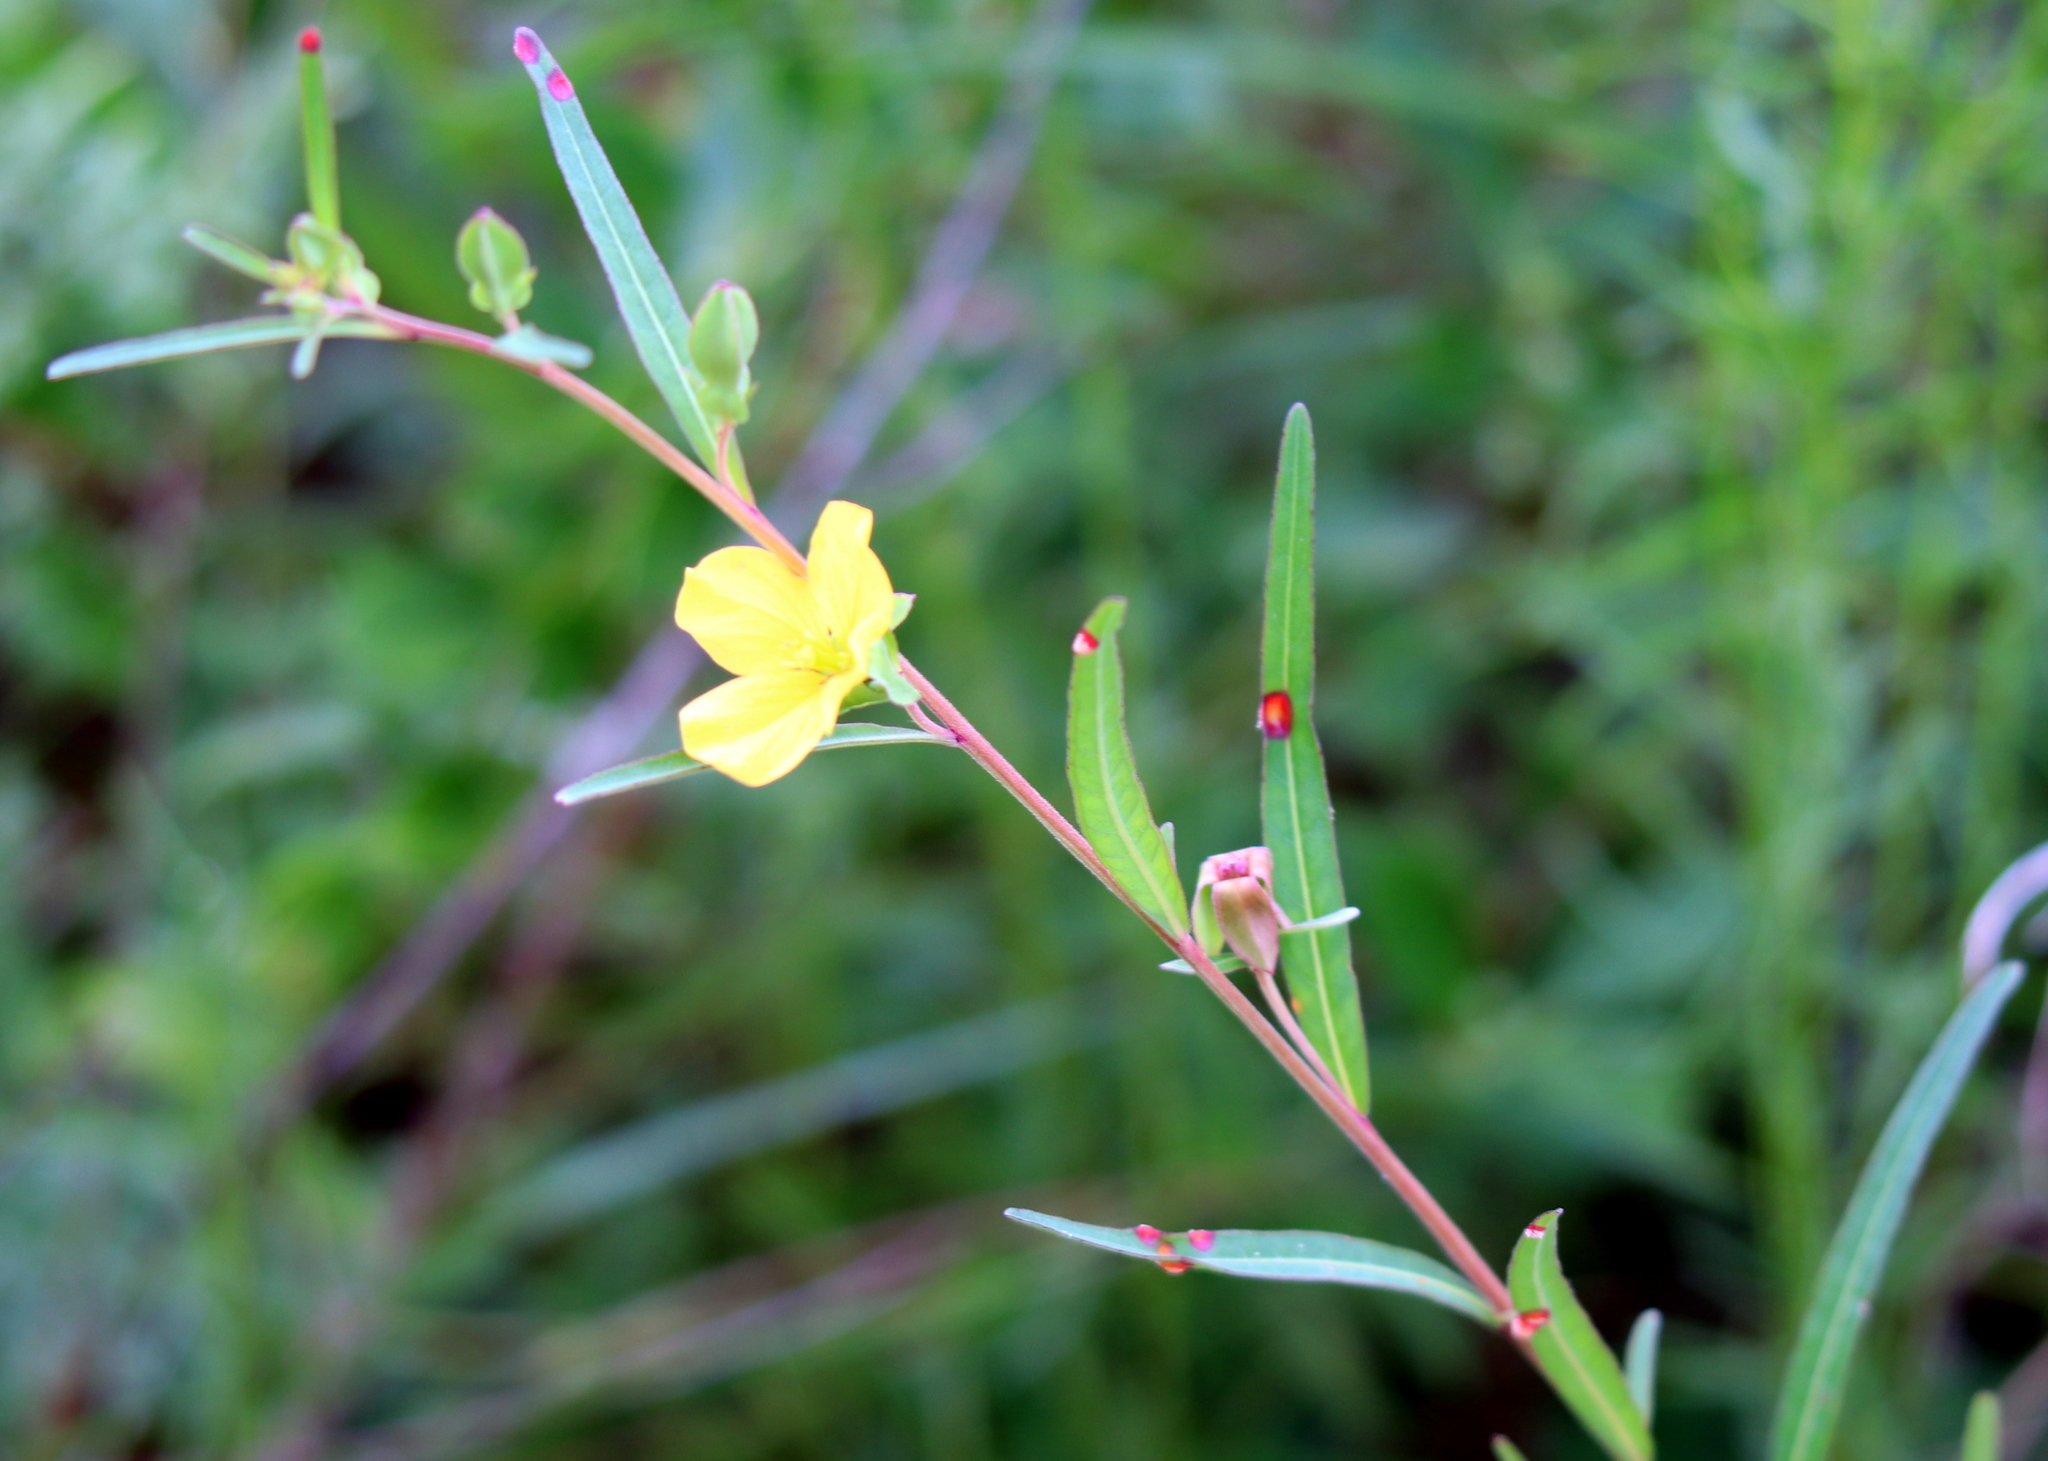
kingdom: Plantae
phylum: Tracheophyta
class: Magnoliopsida
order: Myrtales
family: Onagraceae
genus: Ludwigia
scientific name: Ludwigia virgata
